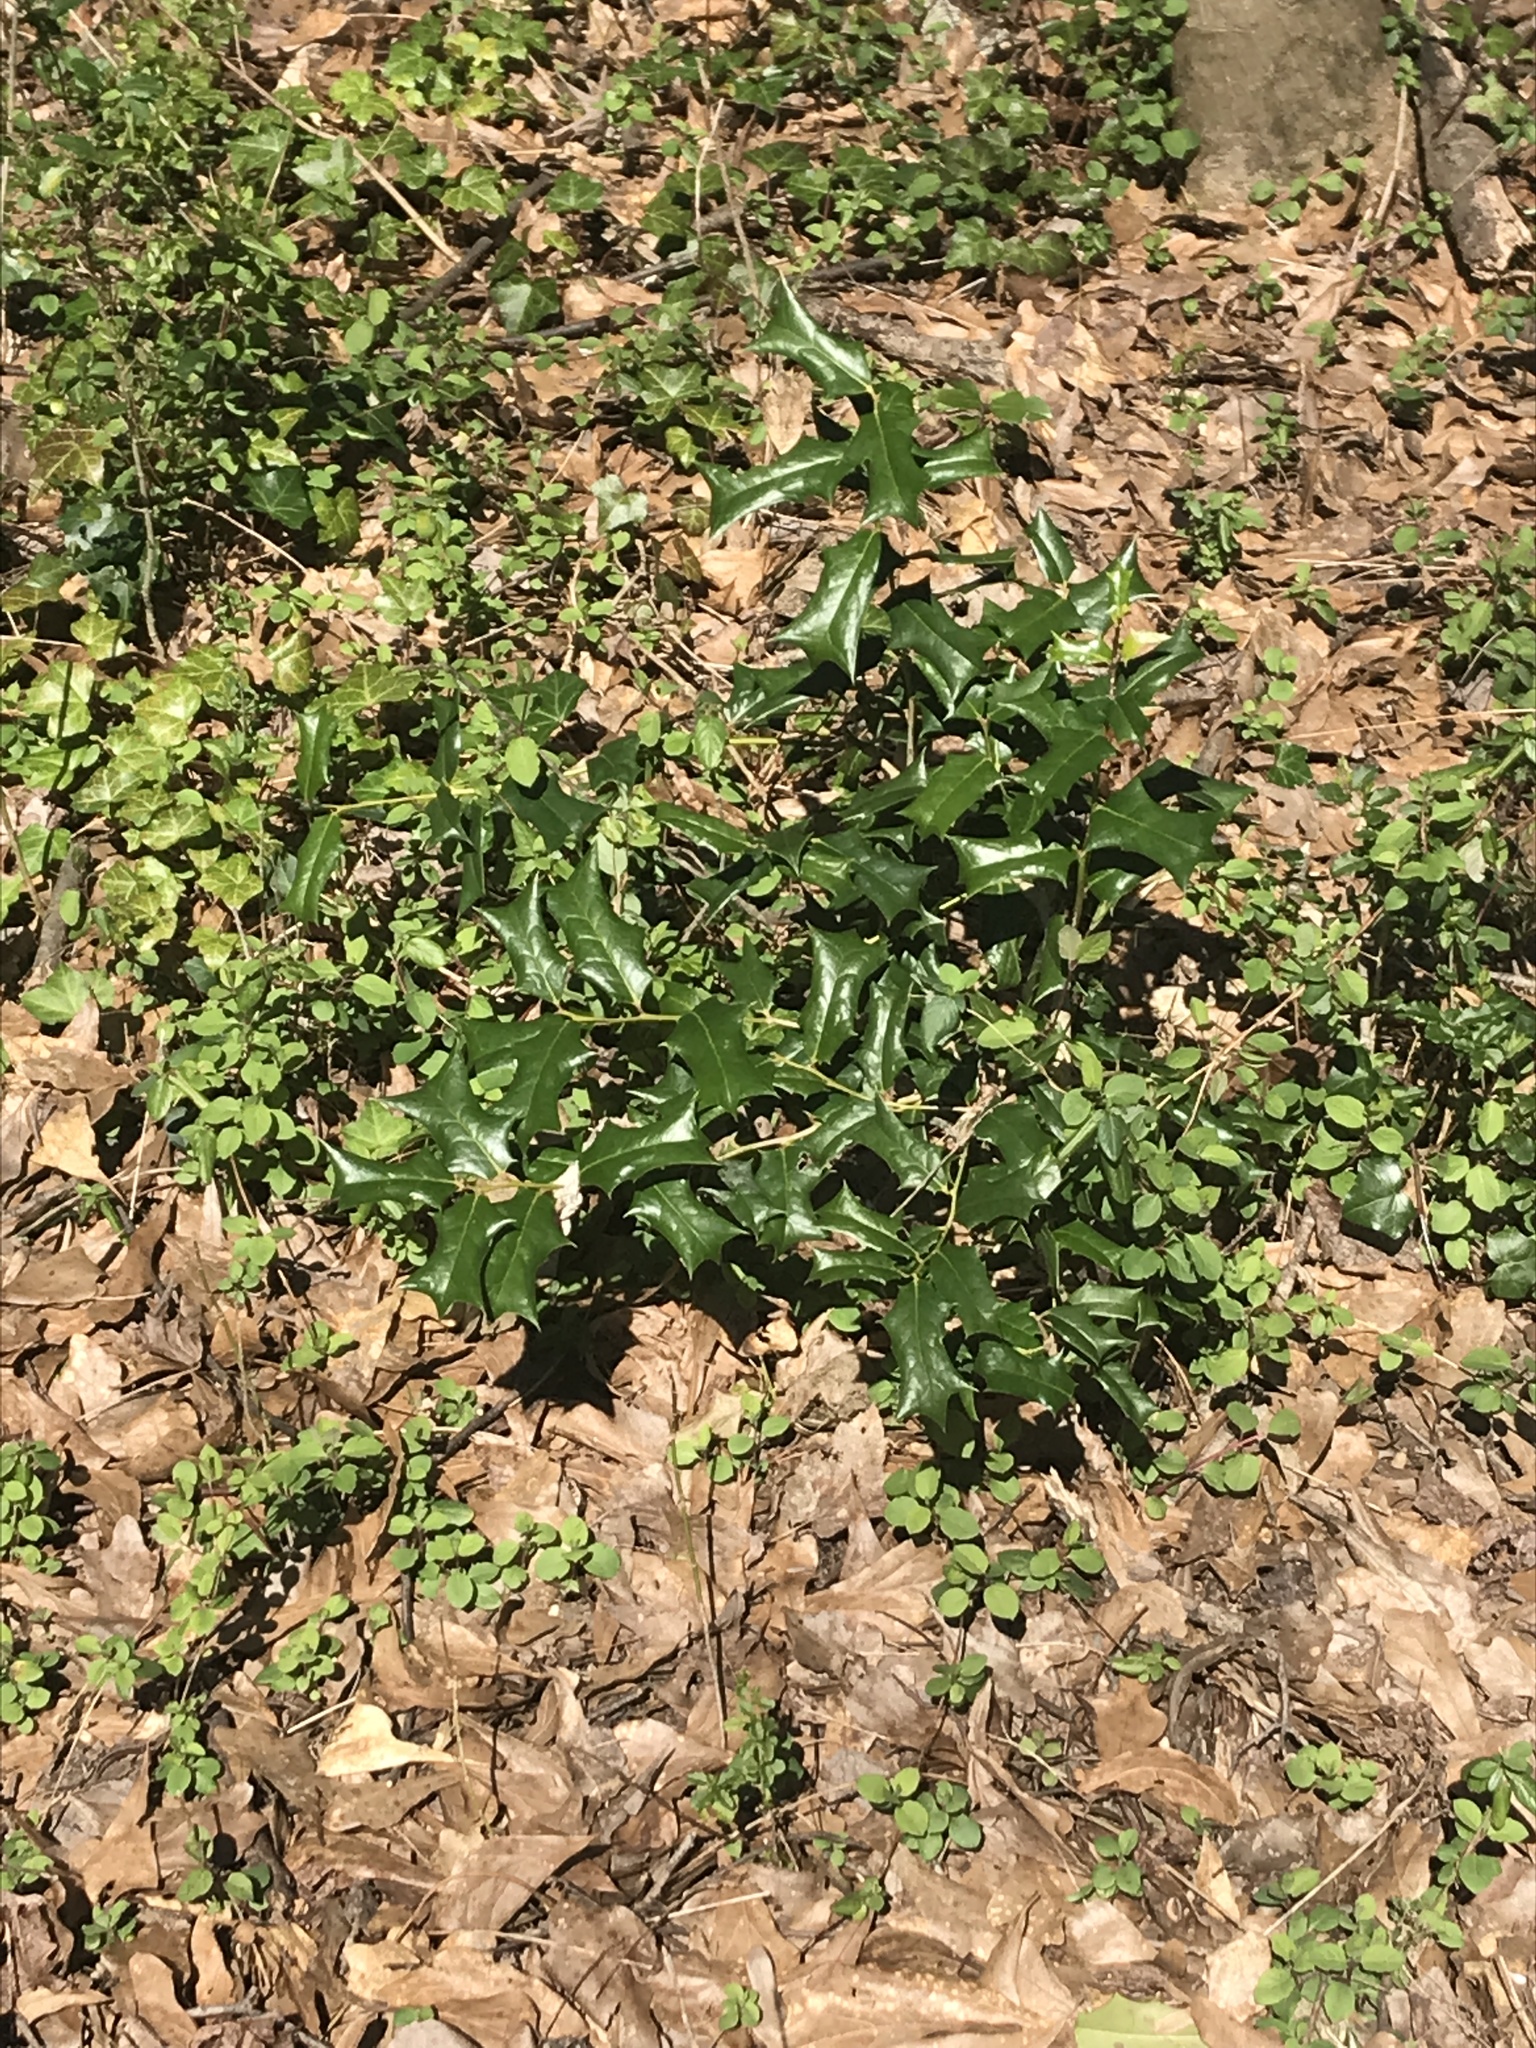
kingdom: Plantae
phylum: Tracheophyta
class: Magnoliopsida
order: Aquifoliales
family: Aquifoliaceae
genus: Ilex
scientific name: Ilex cornuta
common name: Chinese holly
